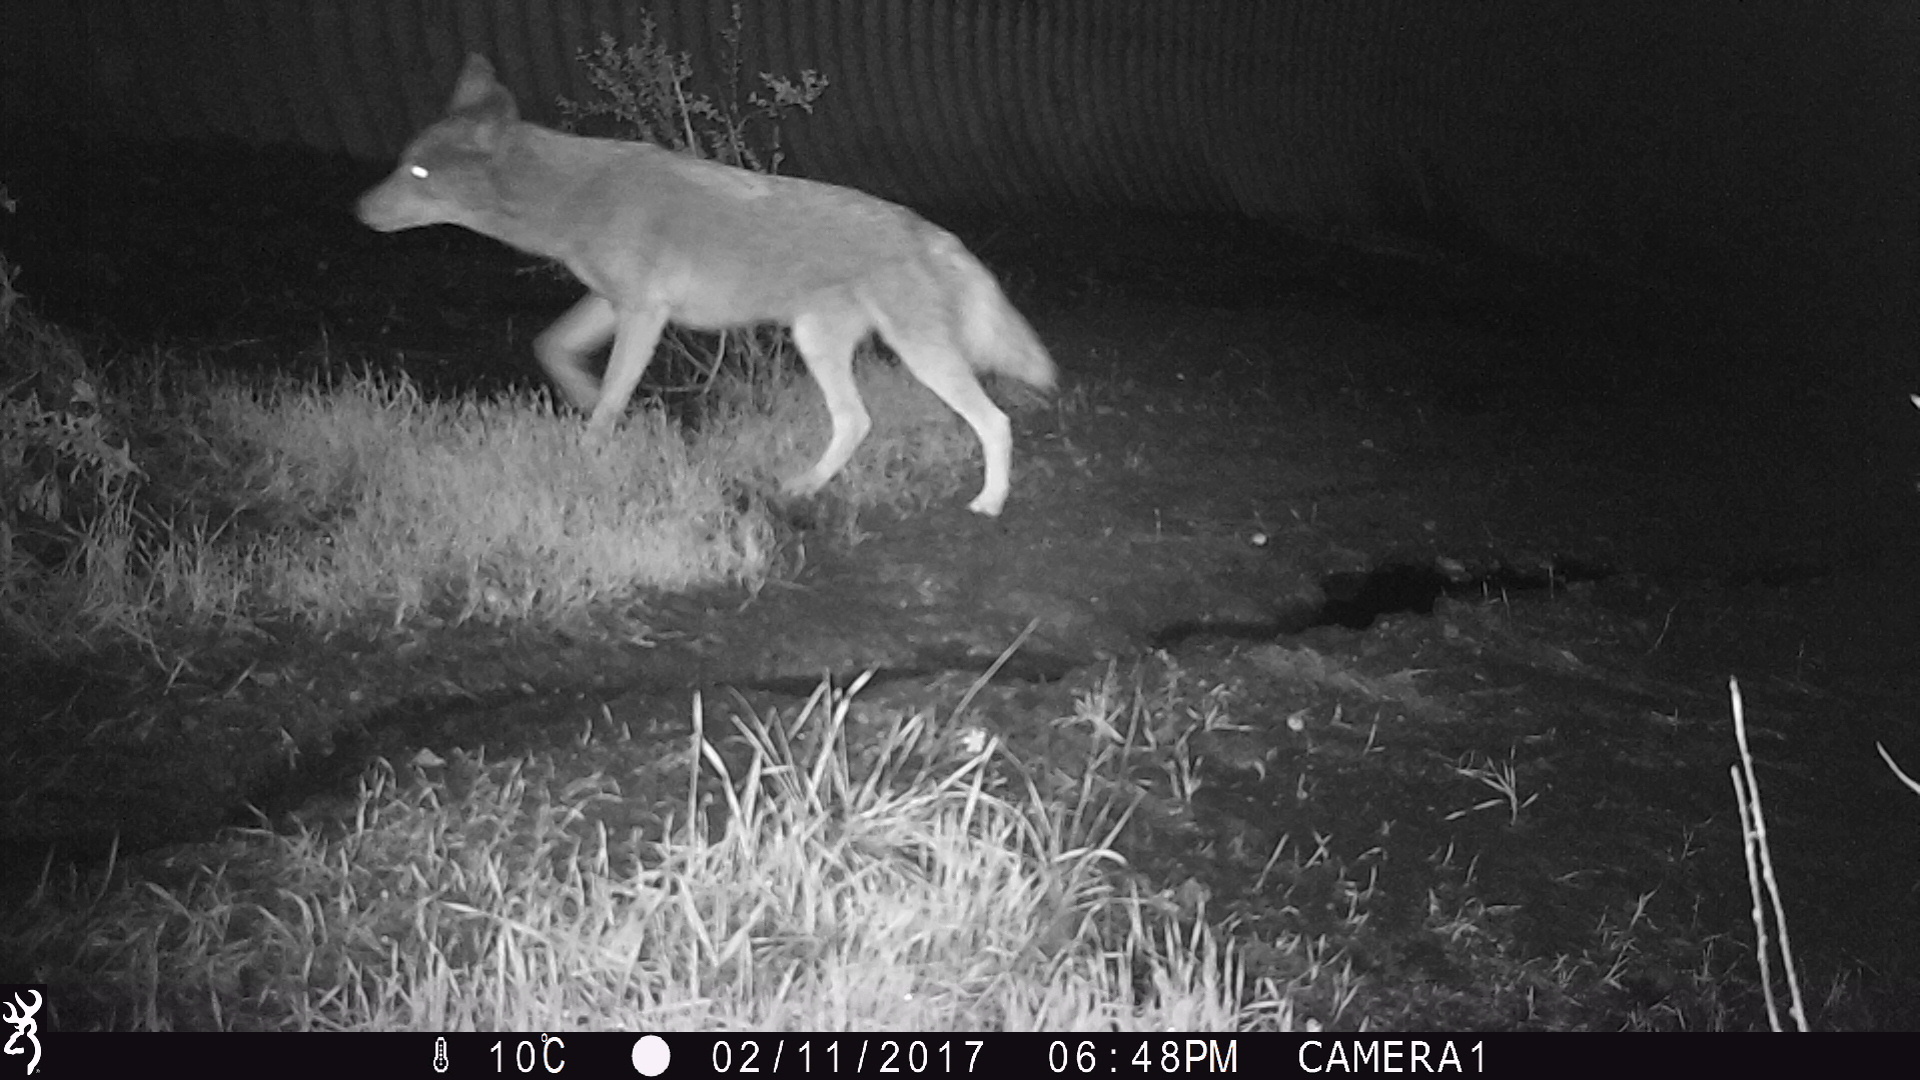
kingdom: Animalia
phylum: Chordata
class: Mammalia
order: Carnivora
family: Canidae
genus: Canis
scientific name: Canis latrans
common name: Coyote
